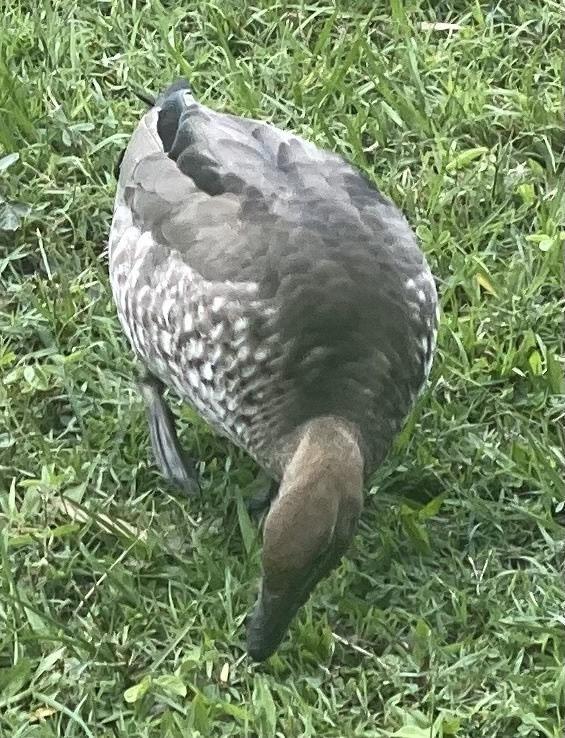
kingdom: Animalia
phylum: Chordata
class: Aves
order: Anseriformes
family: Anatidae
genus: Chenonetta
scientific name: Chenonetta jubata
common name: Maned duck
